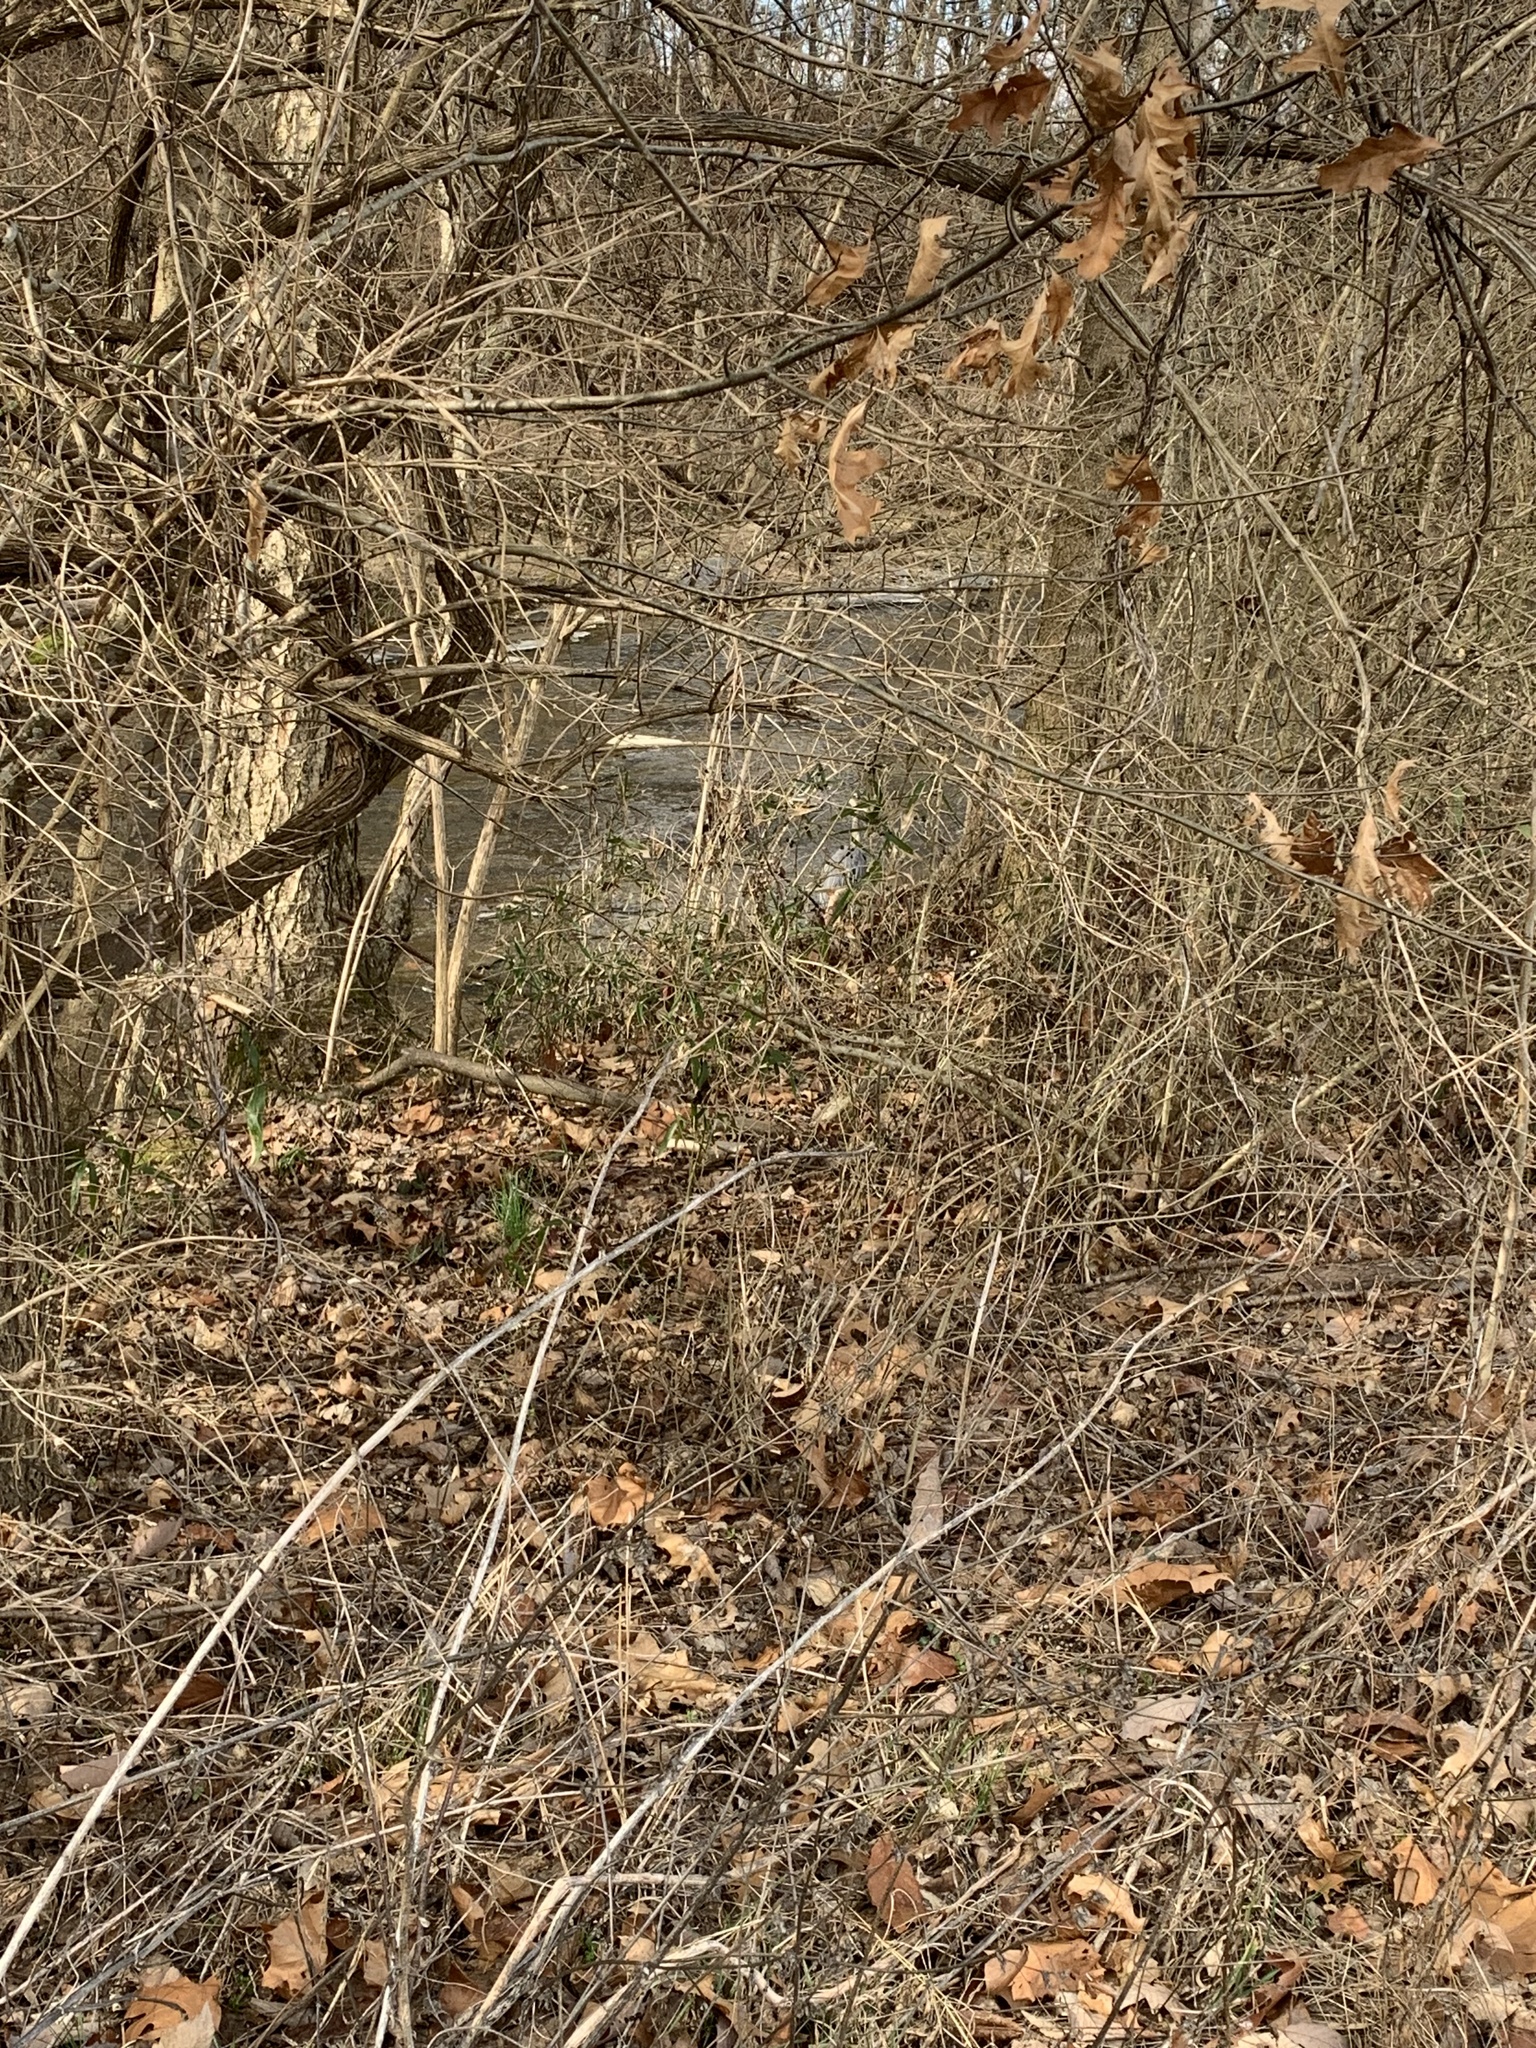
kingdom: Animalia
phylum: Chordata
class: Aves
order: Pelecaniformes
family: Ardeidae
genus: Ardea
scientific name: Ardea herodias
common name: Great blue heron
